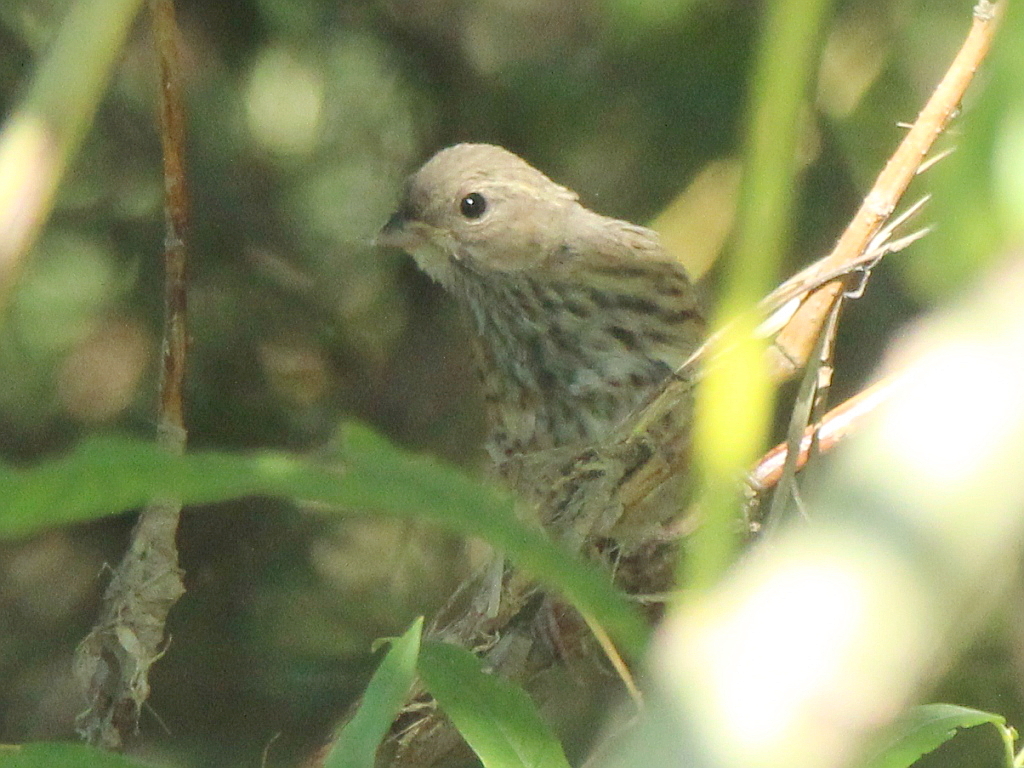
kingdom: Animalia
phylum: Chordata
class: Aves
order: Passeriformes
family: Emberizidae
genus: Emberiza
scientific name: Emberiza spodocephala
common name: Black-faced bunting
